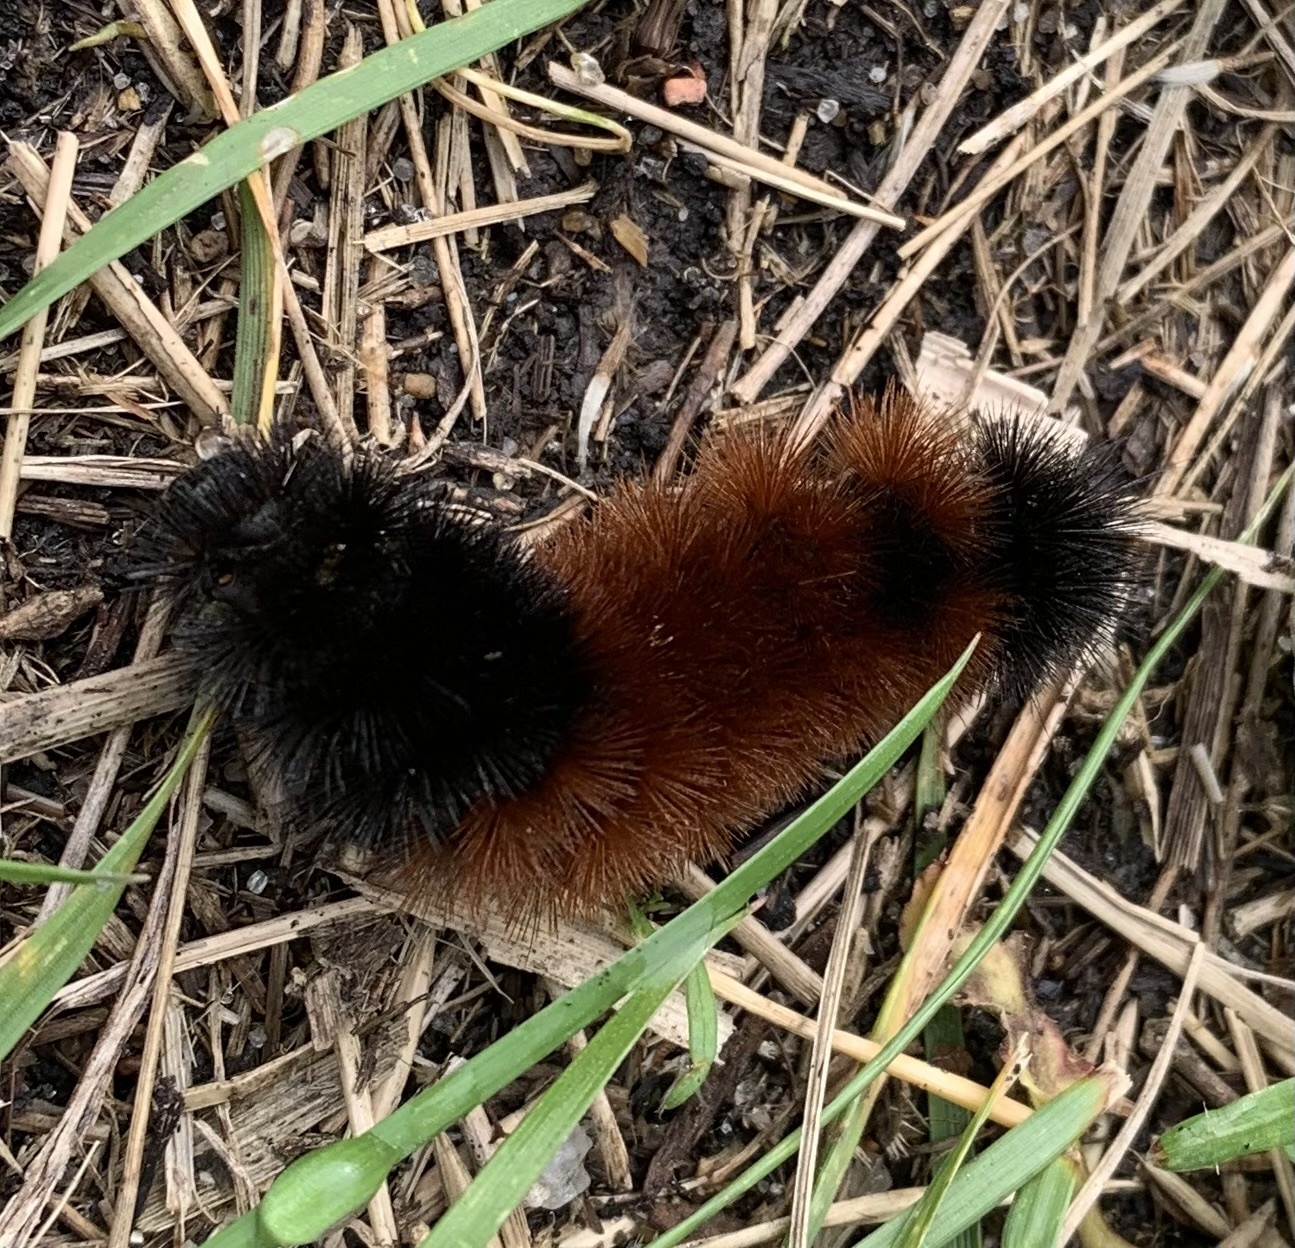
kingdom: Animalia
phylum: Arthropoda
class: Insecta
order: Lepidoptera
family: Erebidae
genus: Pyrrharctia
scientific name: Pyrrharctia isabella
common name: Isabella tiger moth
